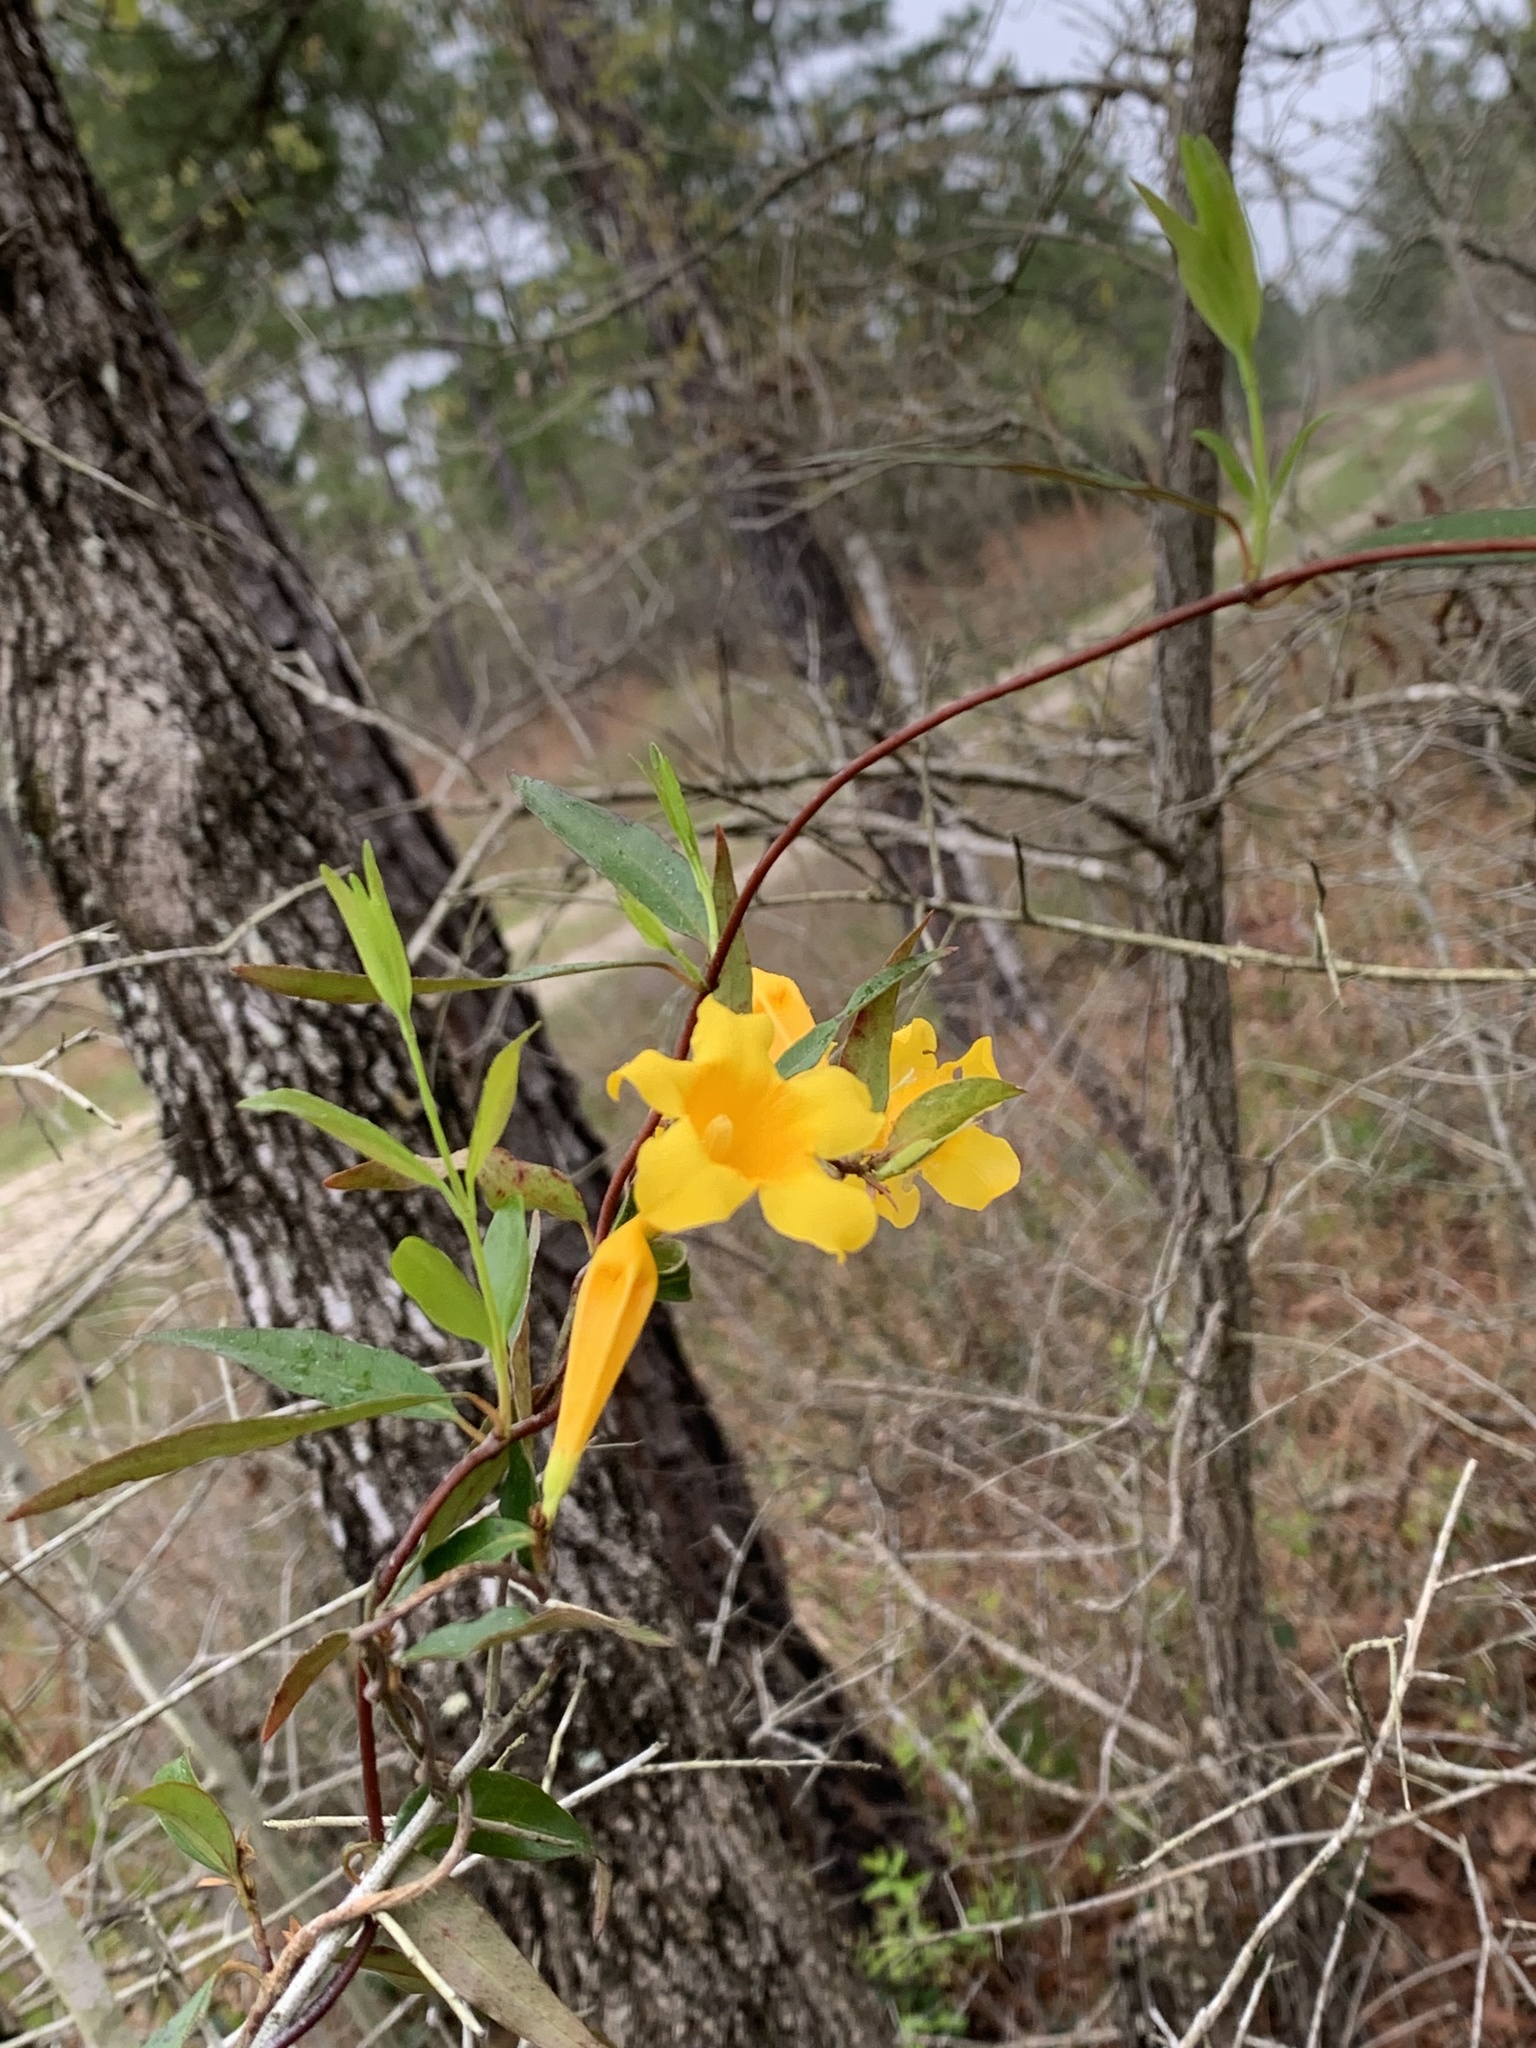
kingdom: Plantae
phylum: Tracheophyta
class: Magnoliopsida
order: Gentianales
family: Gelsemiaceae
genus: Gelsemium
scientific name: Gelsemium sempervirens
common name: Carolina-jasmine
